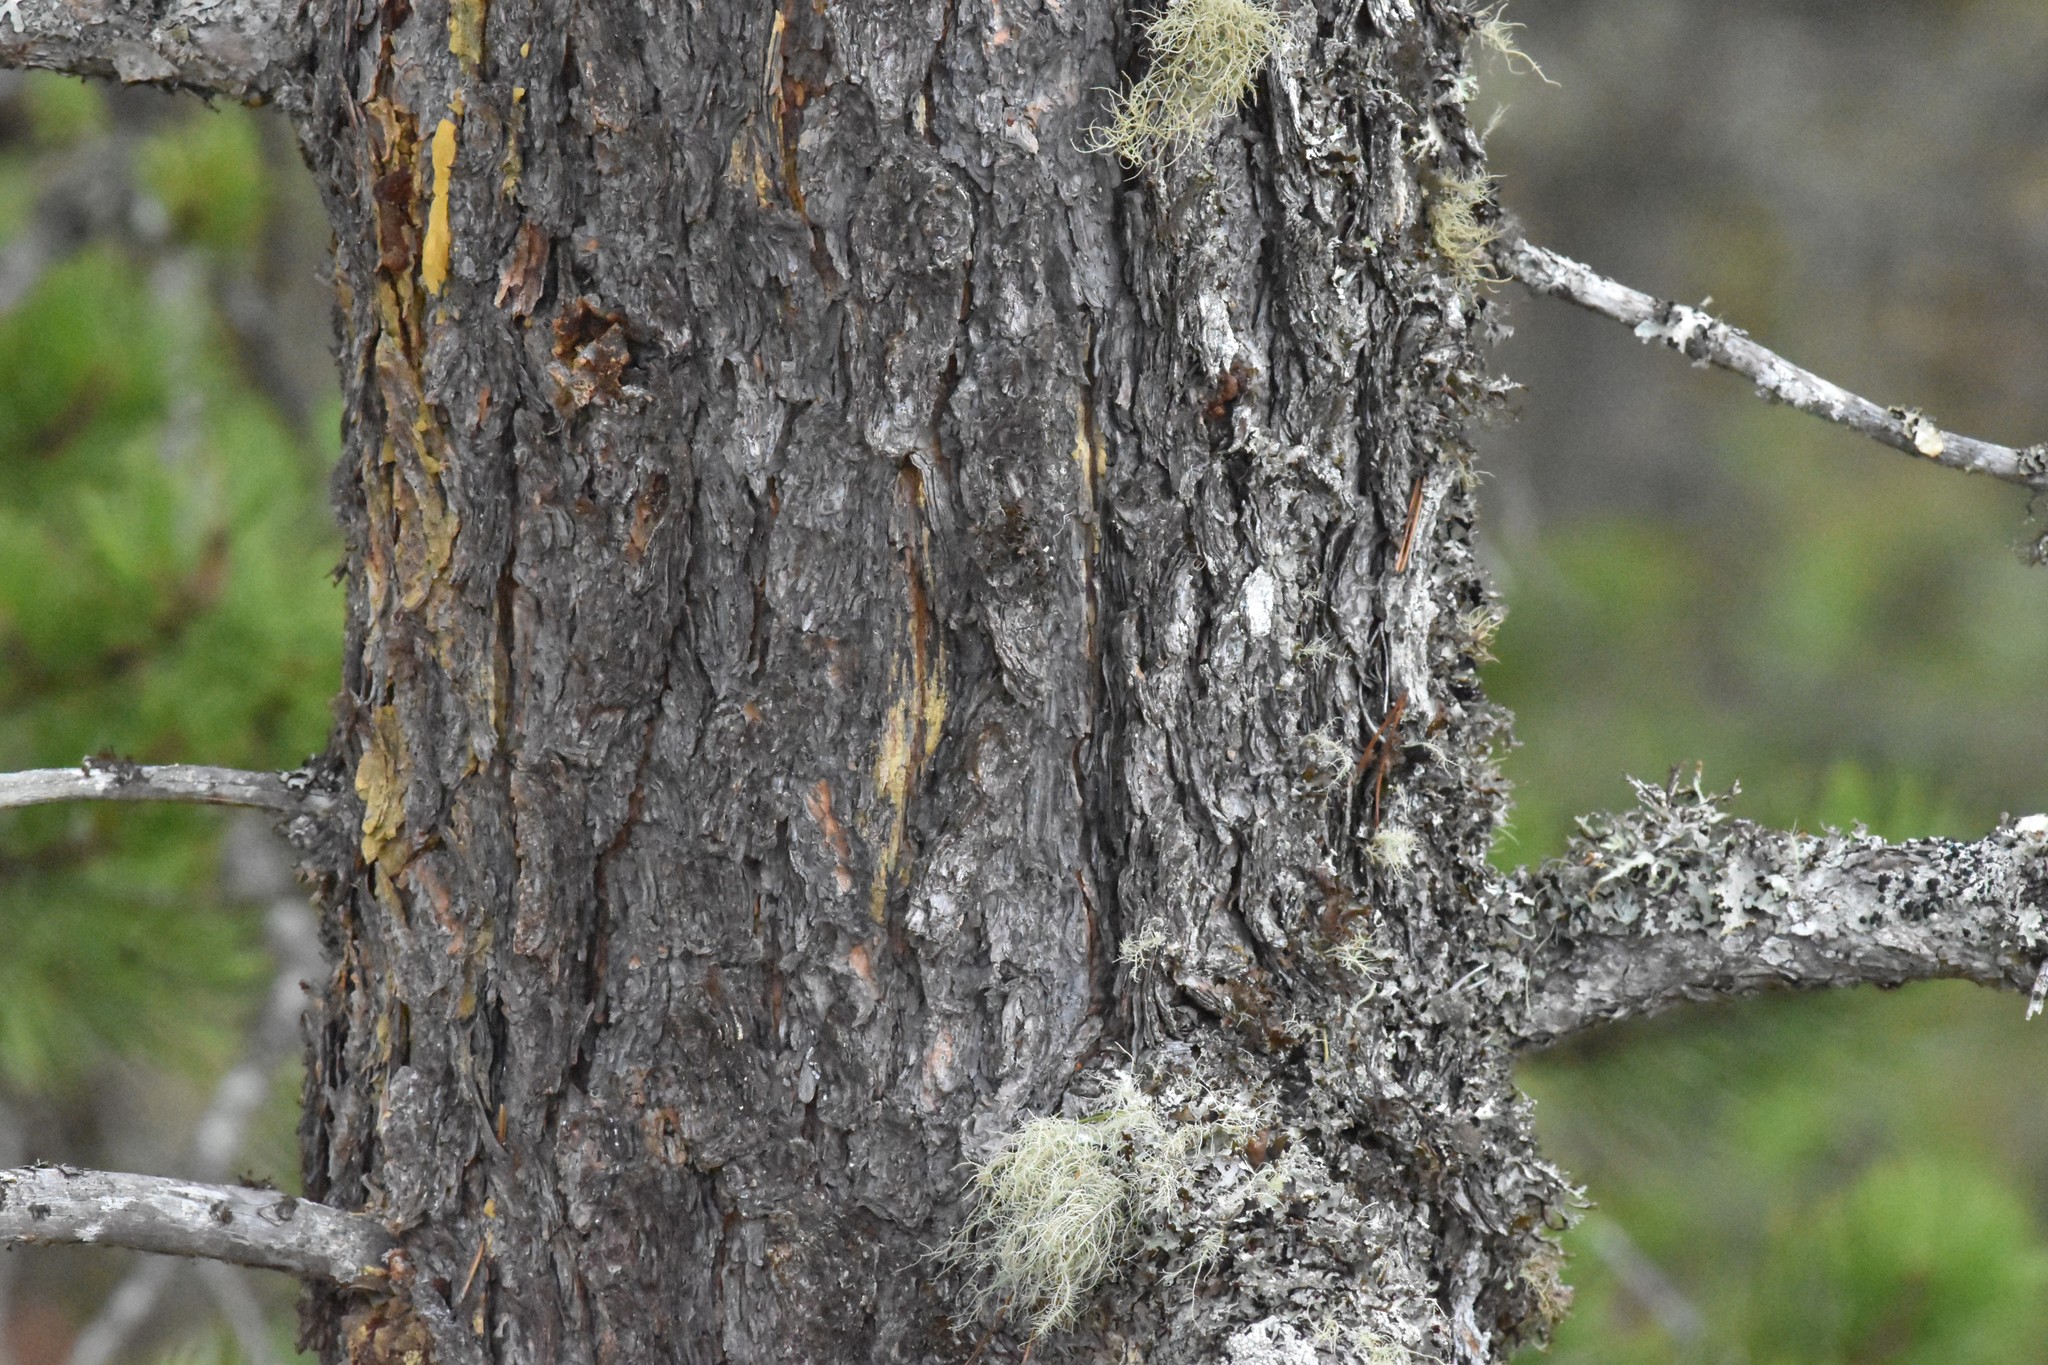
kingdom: Plantae
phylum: Tracheophyta
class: Pinopsida
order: Pinales
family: Pinaceae
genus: Pinus
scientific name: Pinus contorta
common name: Lodgepole pine
